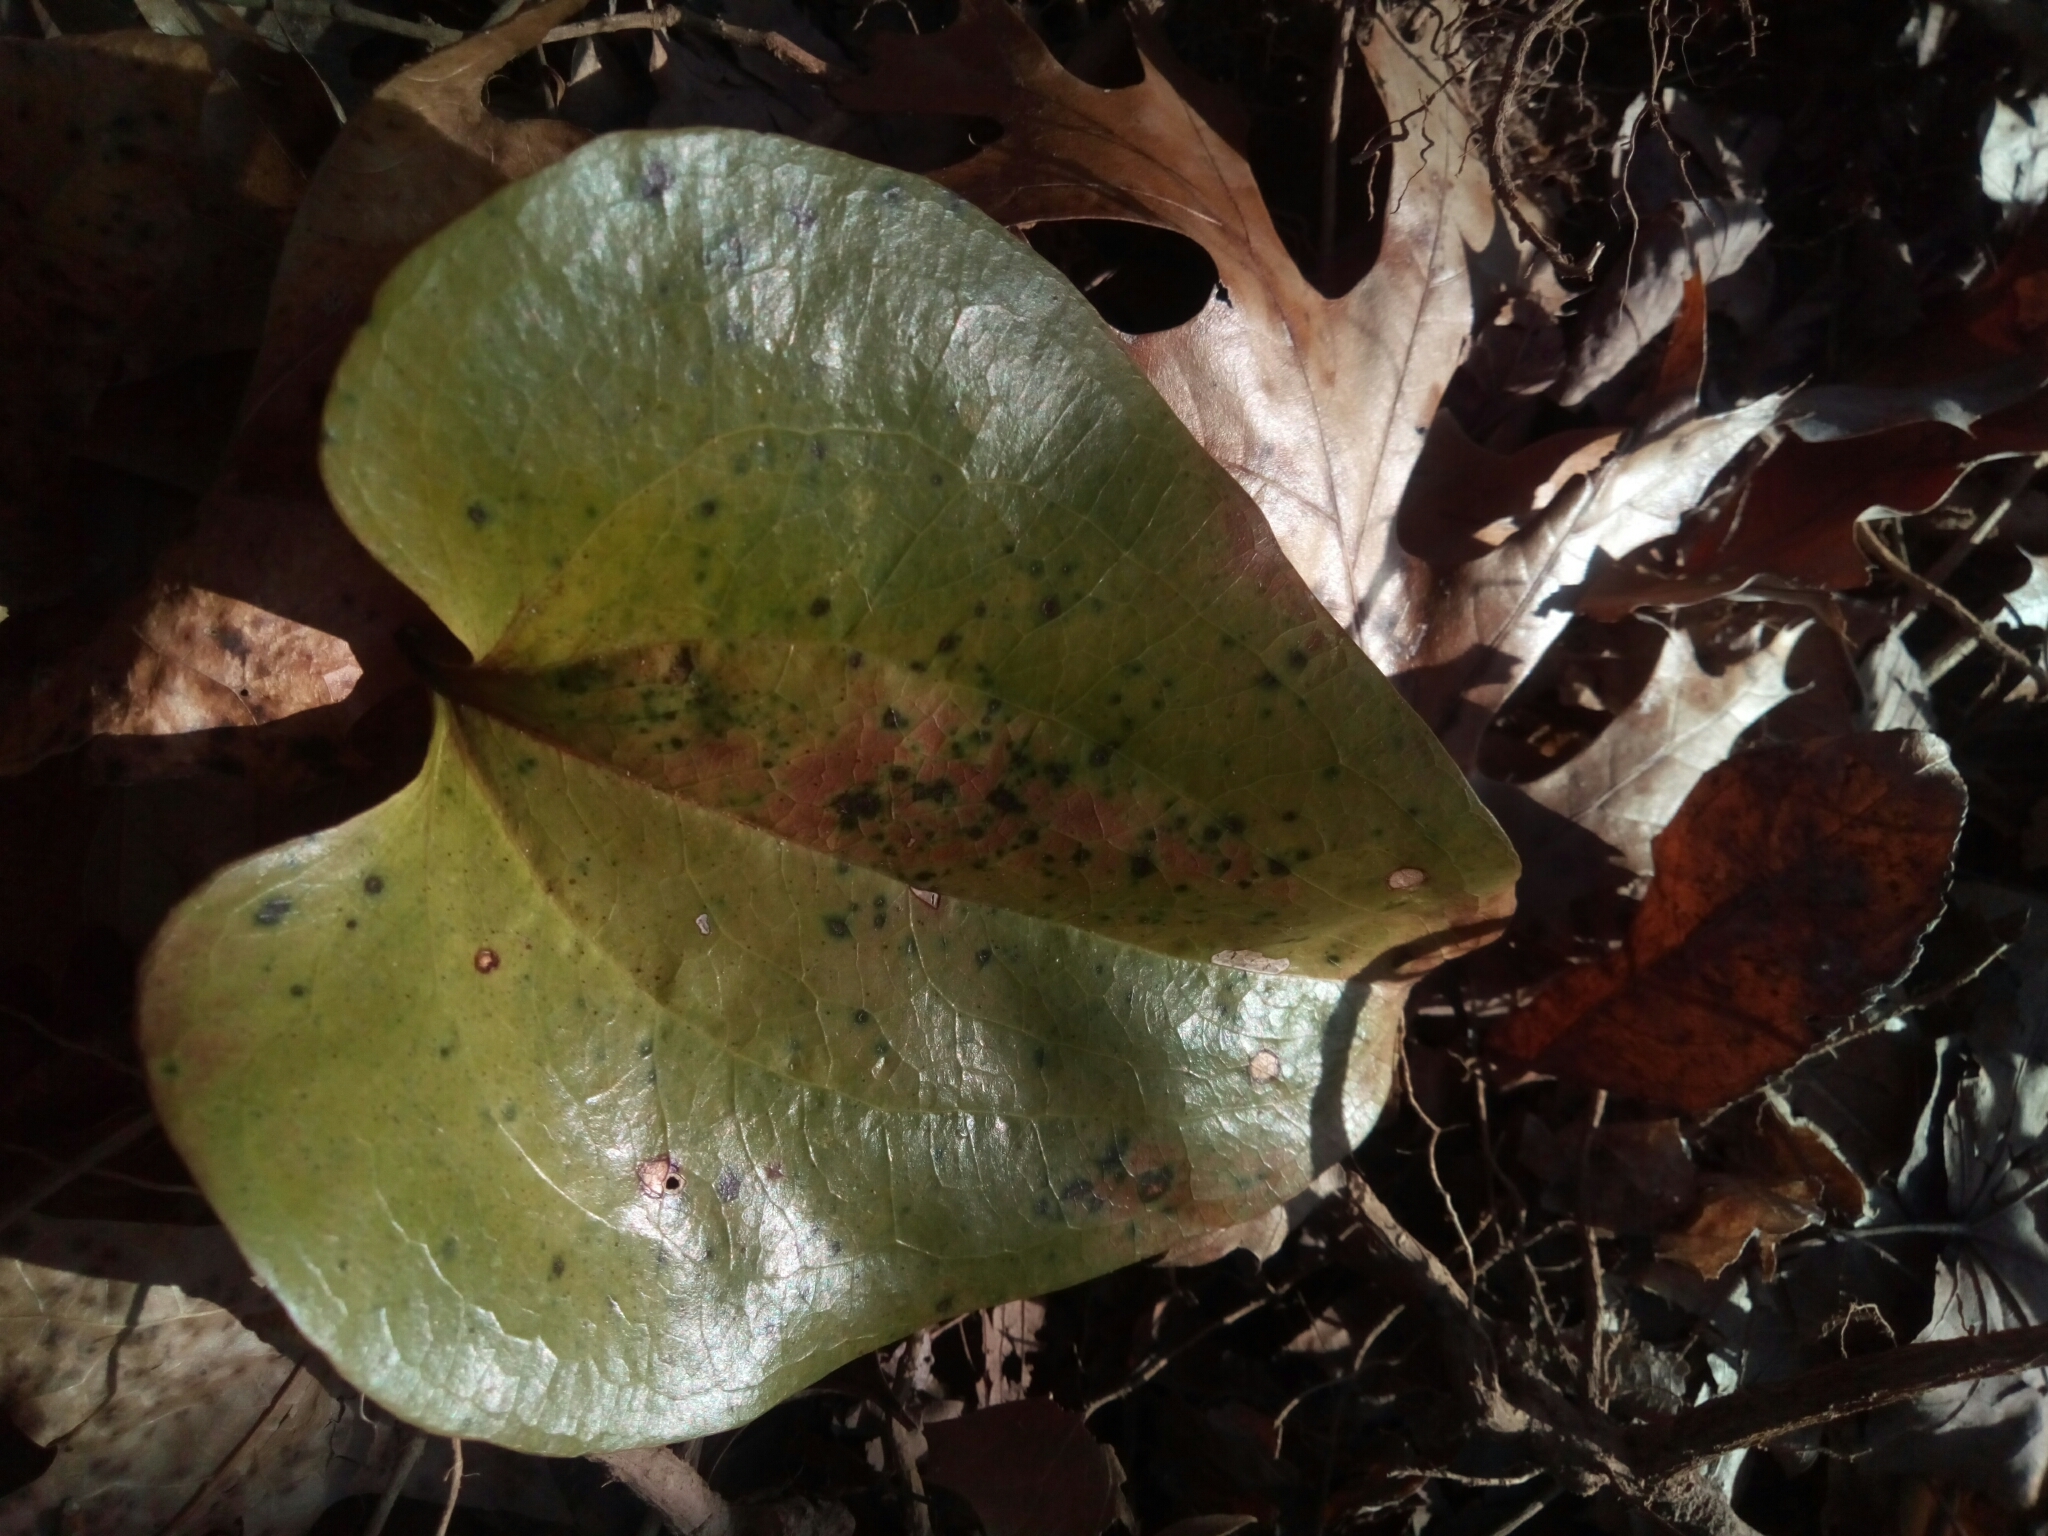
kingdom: Plantae
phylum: Tracheophyta
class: Liliopsida
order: Liliales
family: Smilacaceae
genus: Smilax
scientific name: Smilax rotundifolia
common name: Bullbriar
